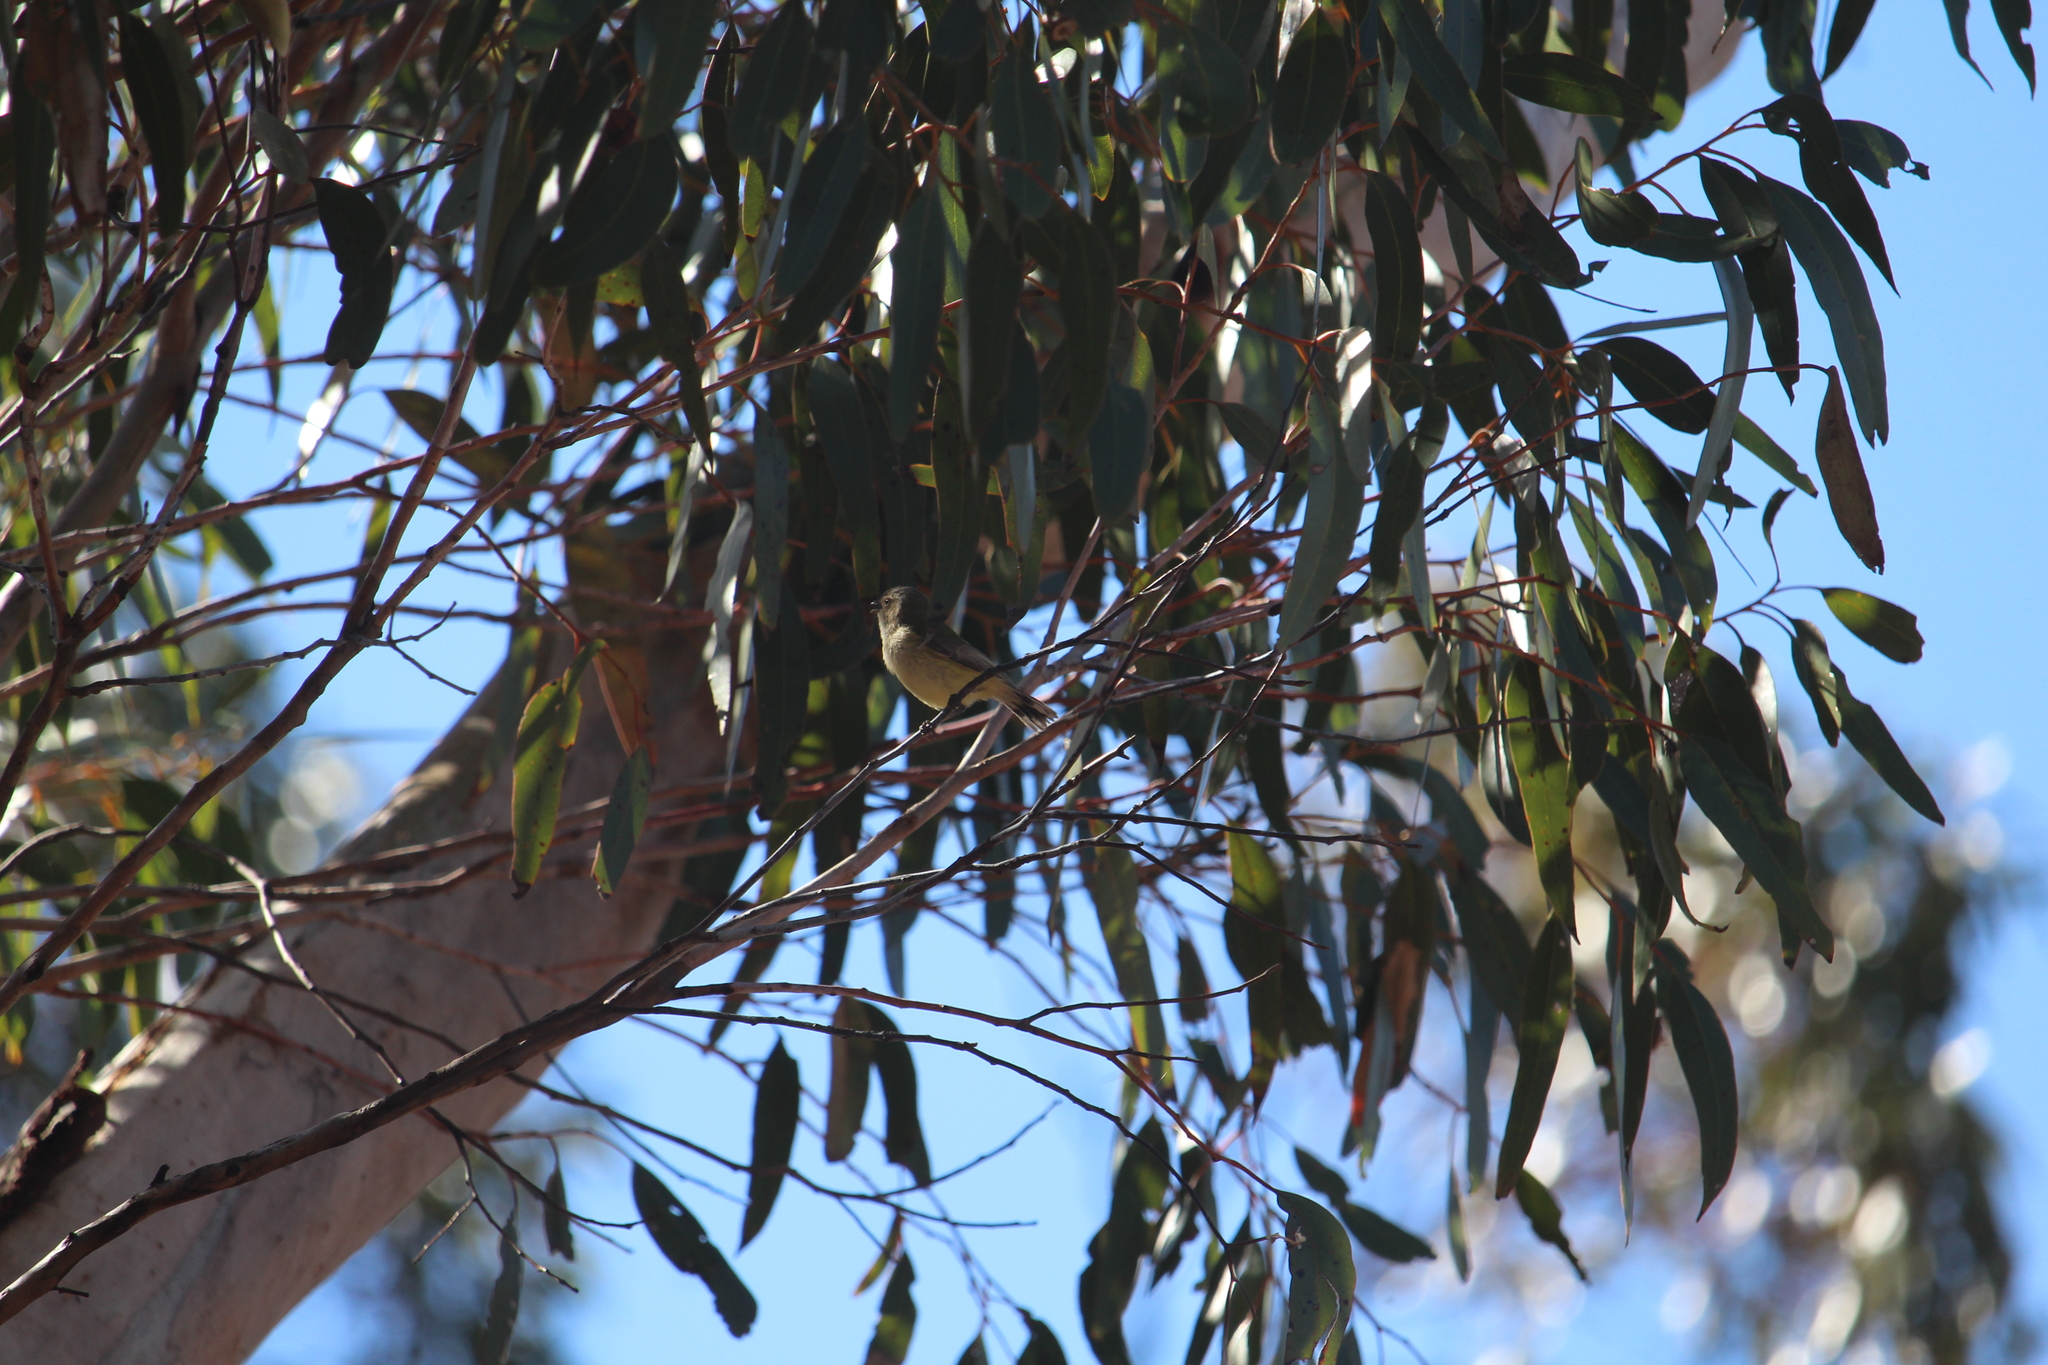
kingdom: Animalia
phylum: Chordata
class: Aves
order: Passeriformes
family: Acanthizidae
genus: Smicrornis
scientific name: Smicrornis brevirostris
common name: Weebill
